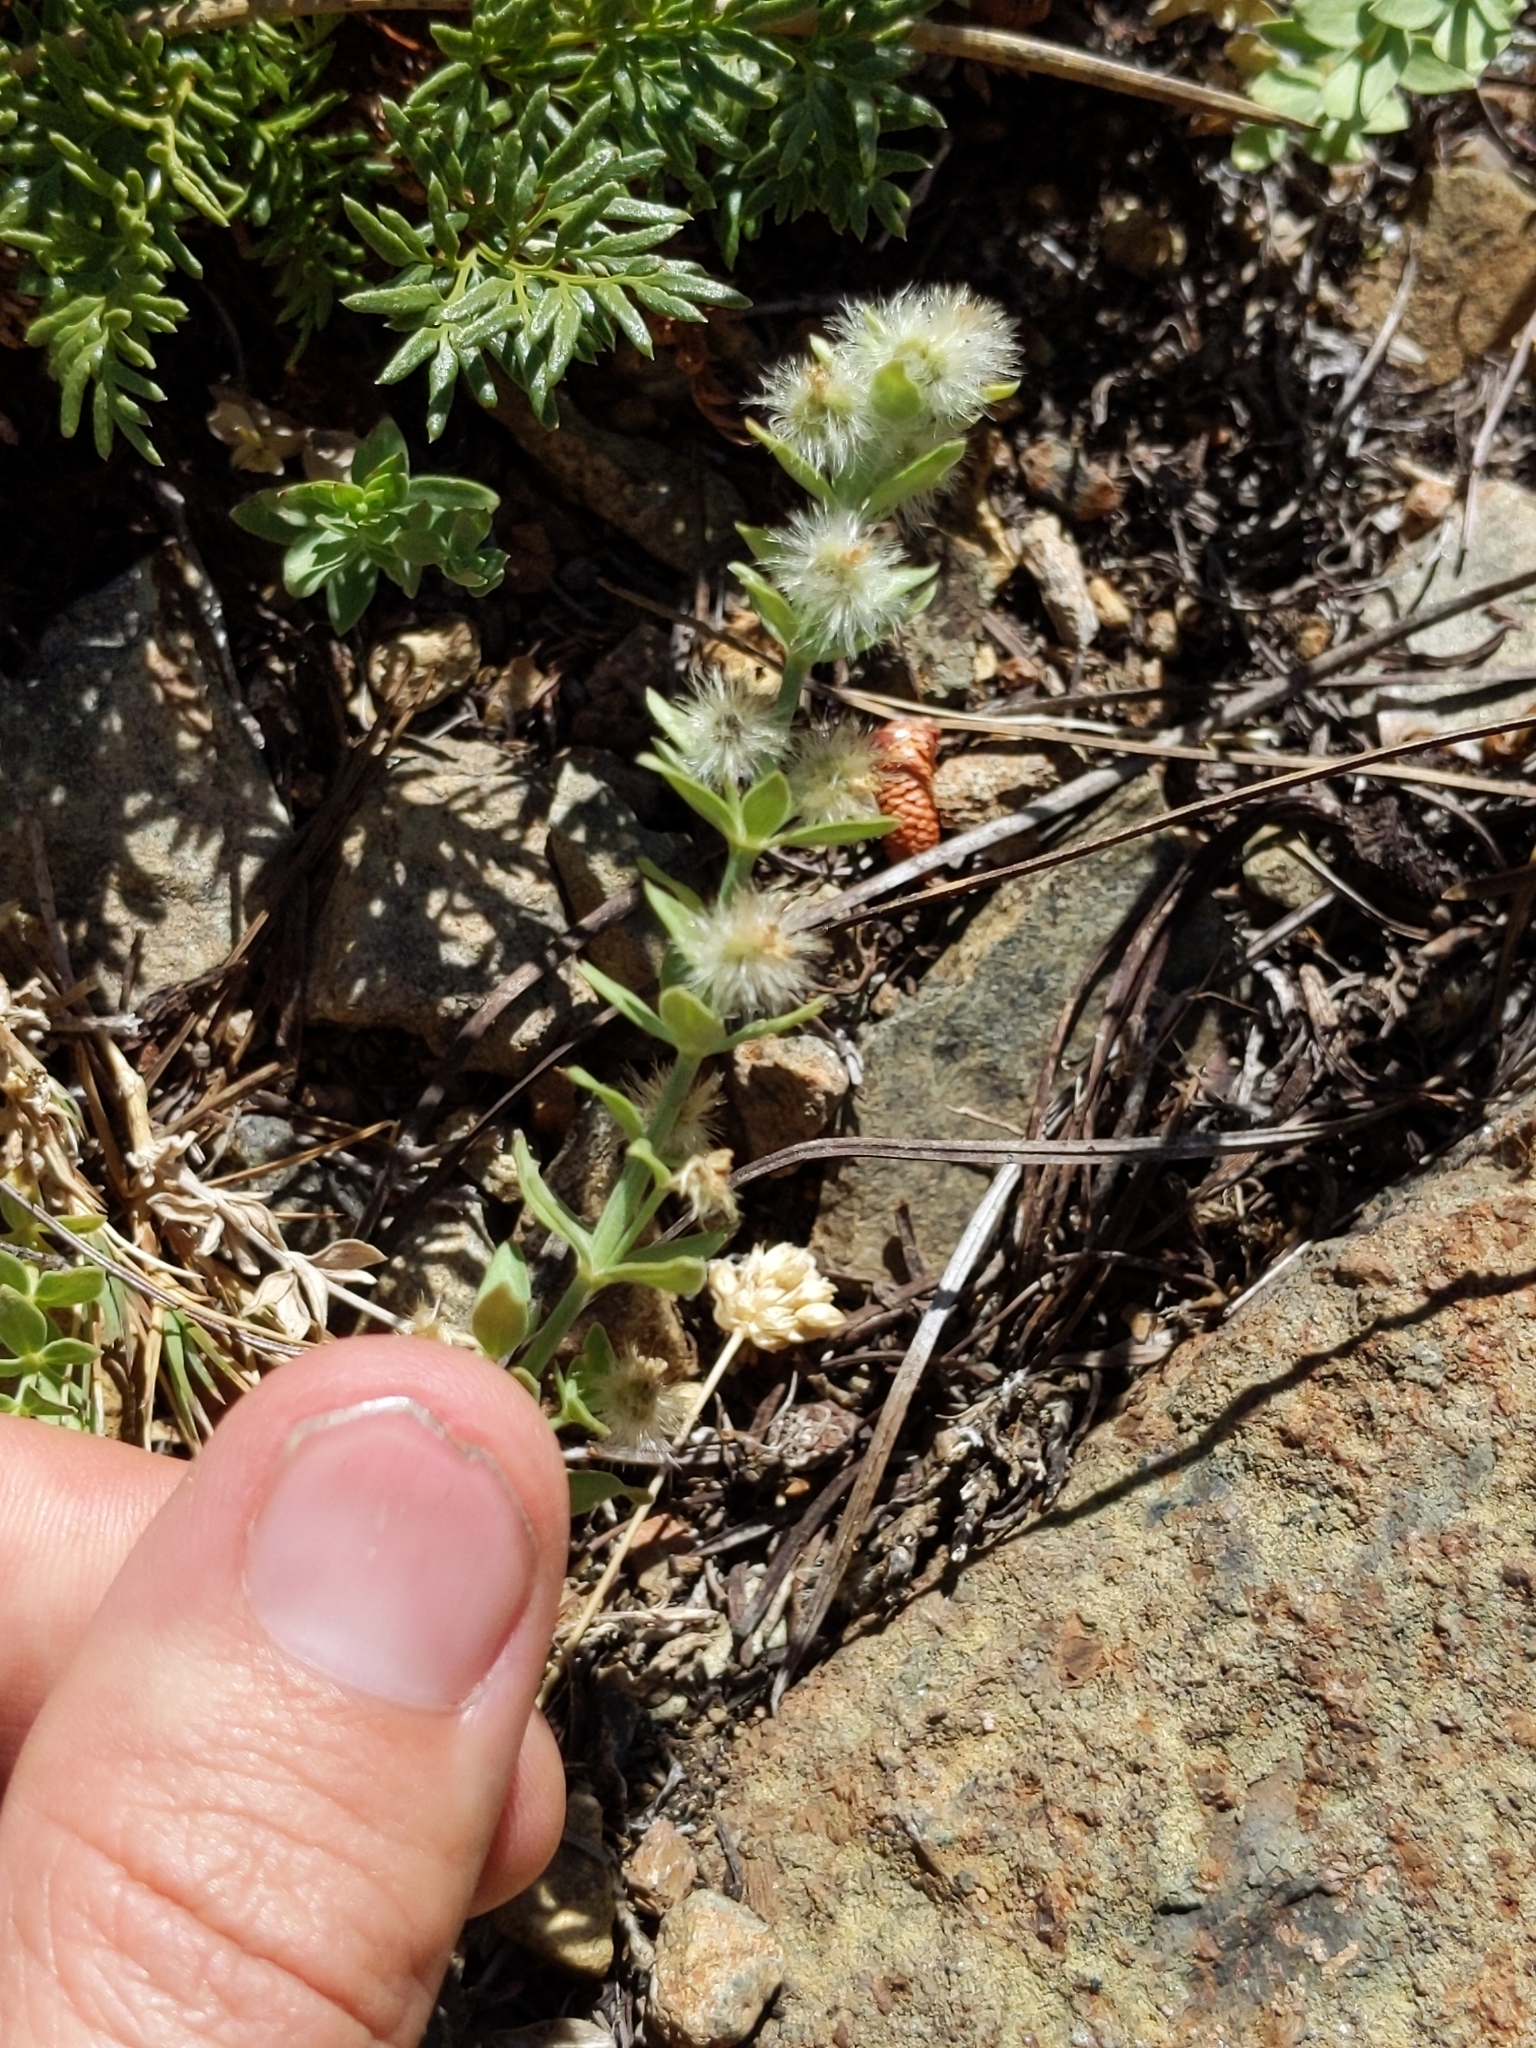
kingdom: Plantae
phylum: Tracheophyta
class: Magnoliopsida
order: Gentianales
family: Rubiaceae
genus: Galium
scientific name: Galium serpenticum
